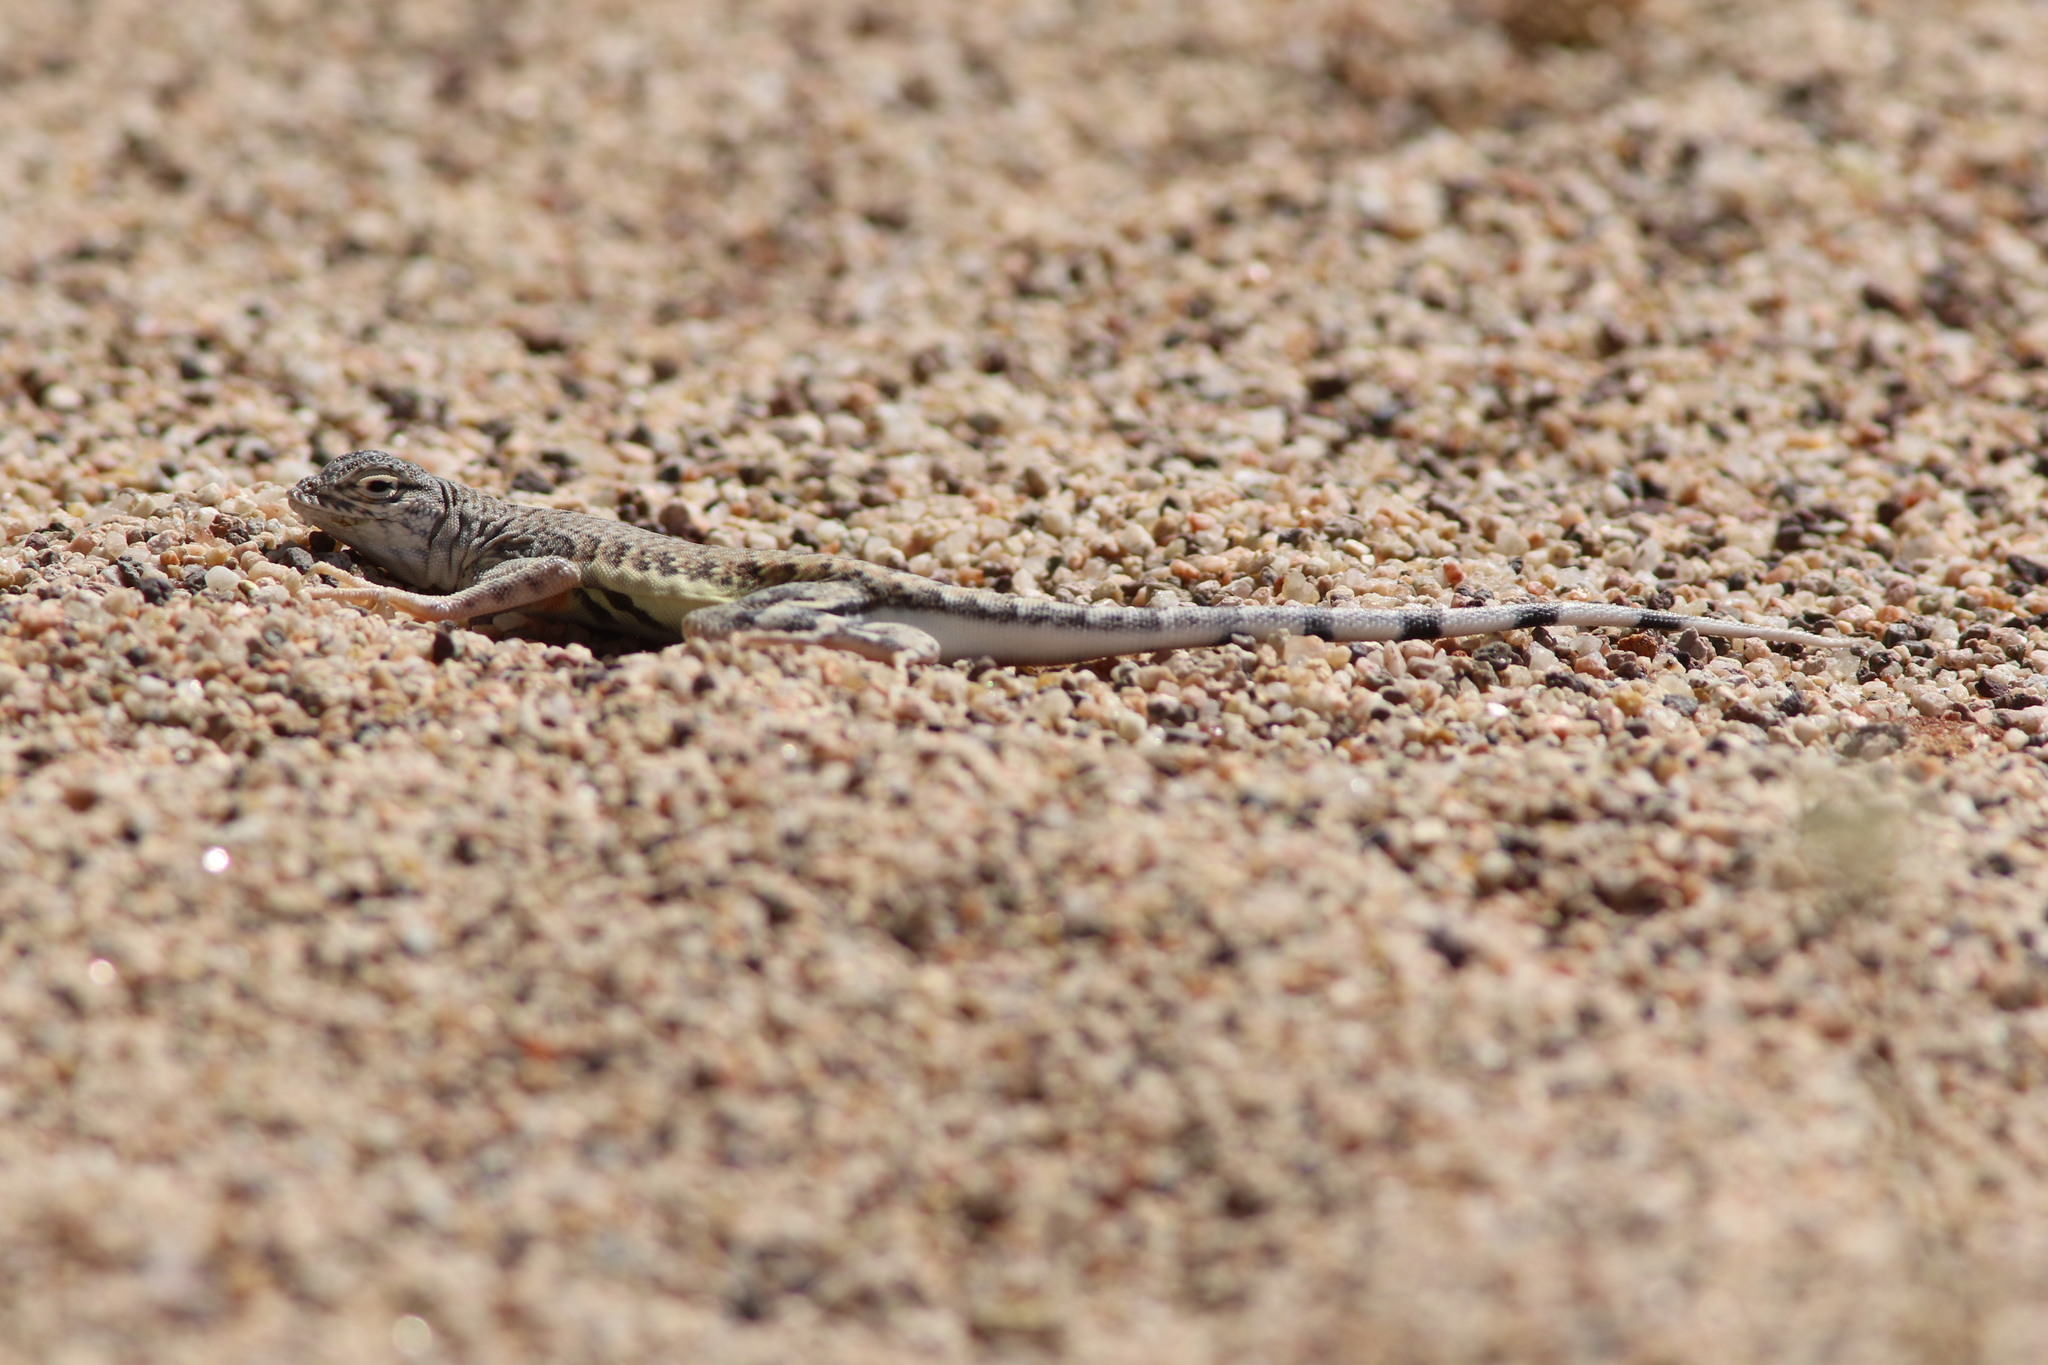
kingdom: Animalia
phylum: Chordata
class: Squamata
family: Phrynosomatidae
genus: Callisaurus
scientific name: Callisaurus draconoides
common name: Zebra-tailed lizard
